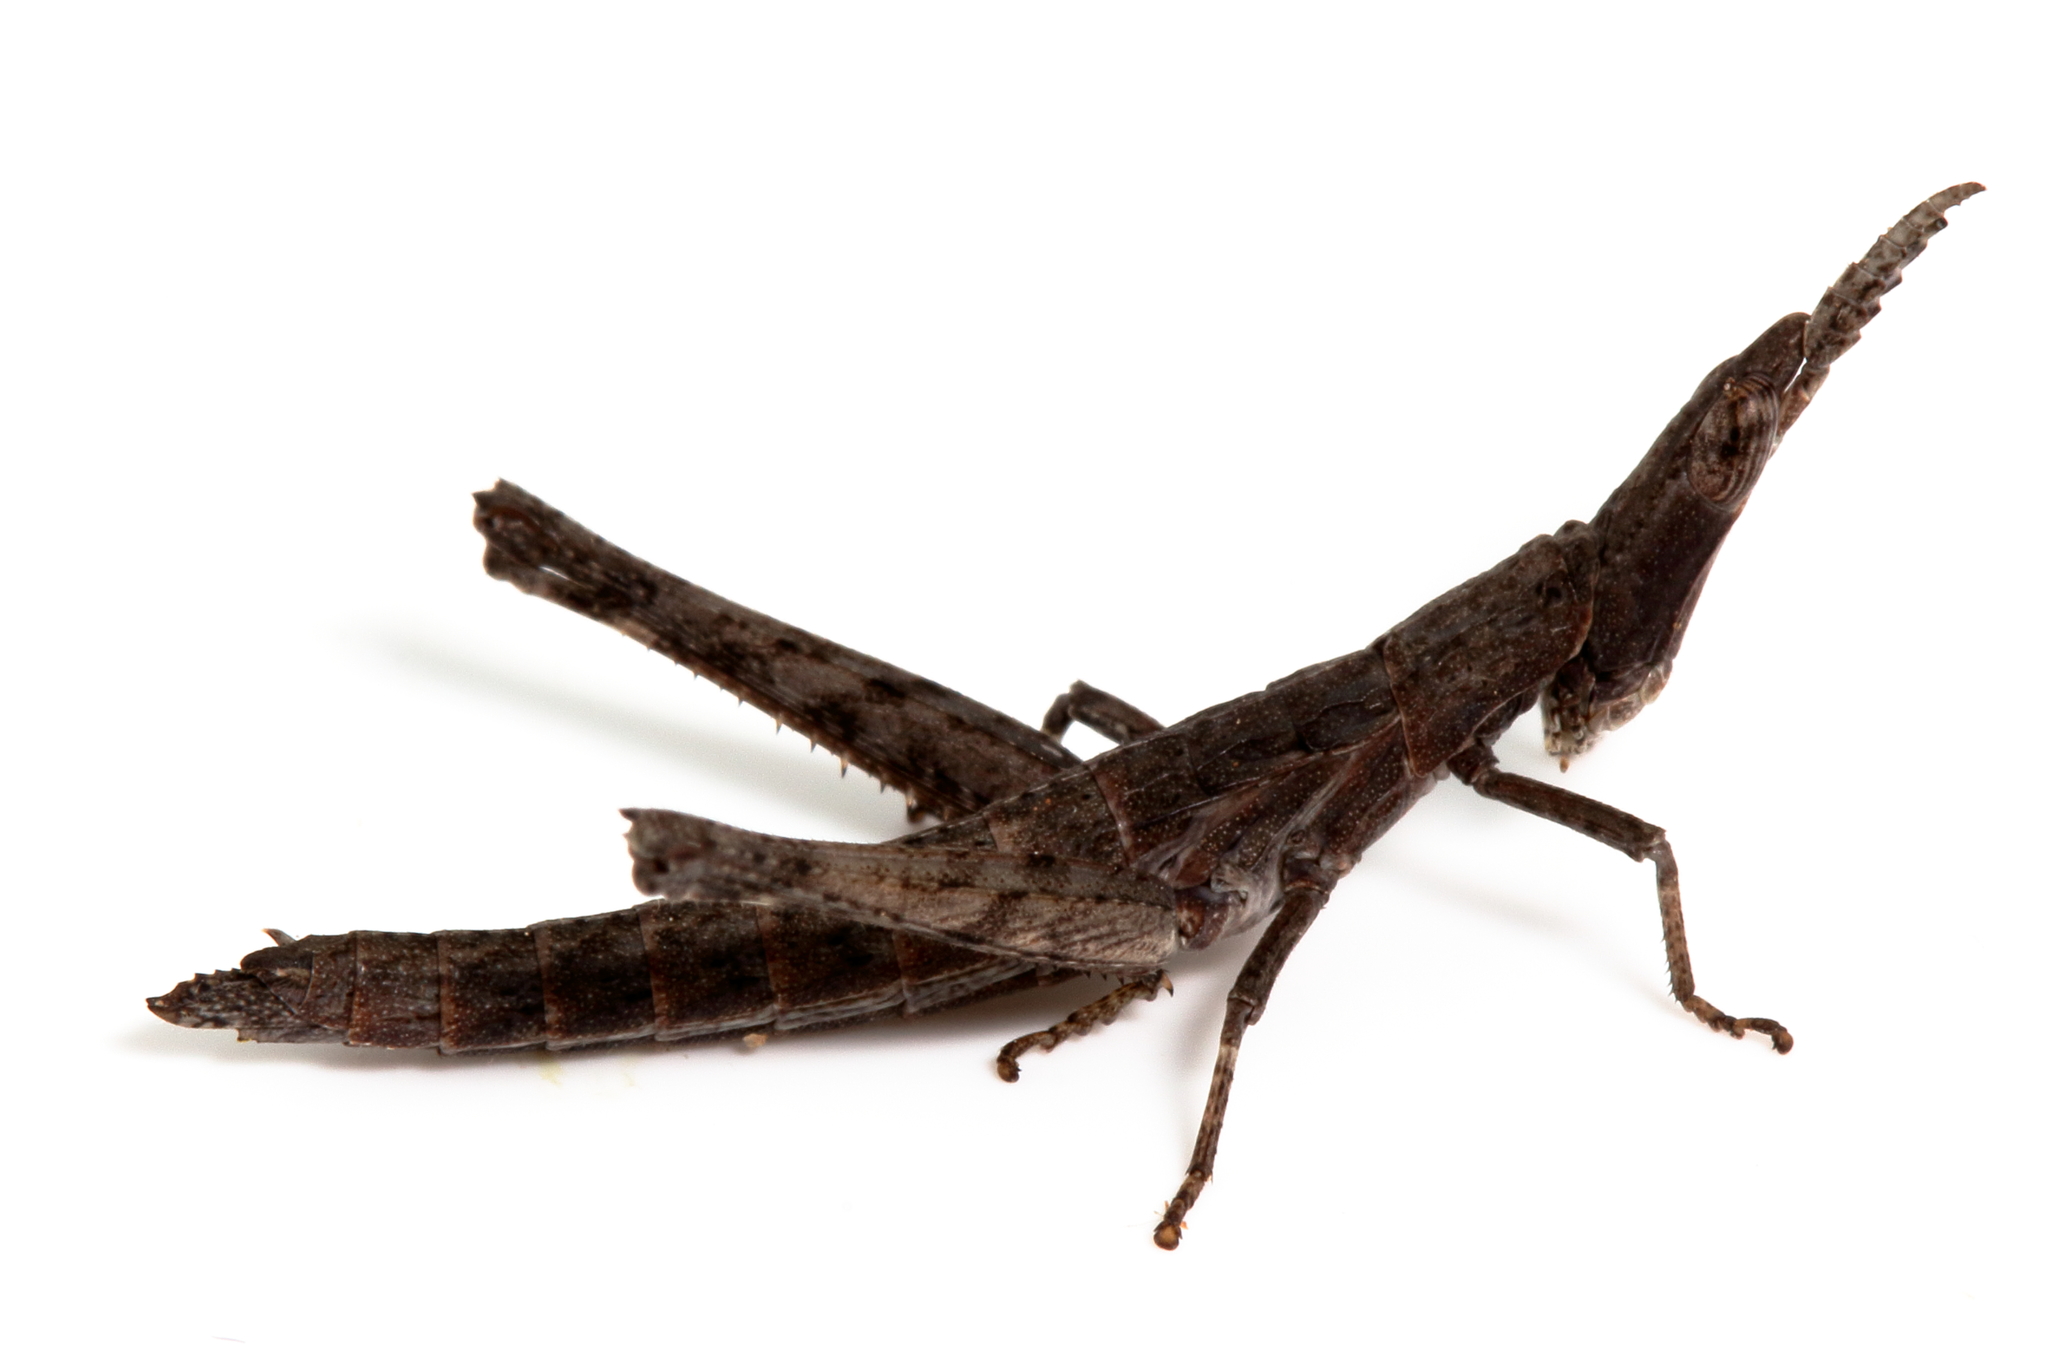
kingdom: Animalia
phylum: Arthropoda
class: Insecta
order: Orthoptera
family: Morabidae
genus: Vandiemenella
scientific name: Vandiemenella viatica
